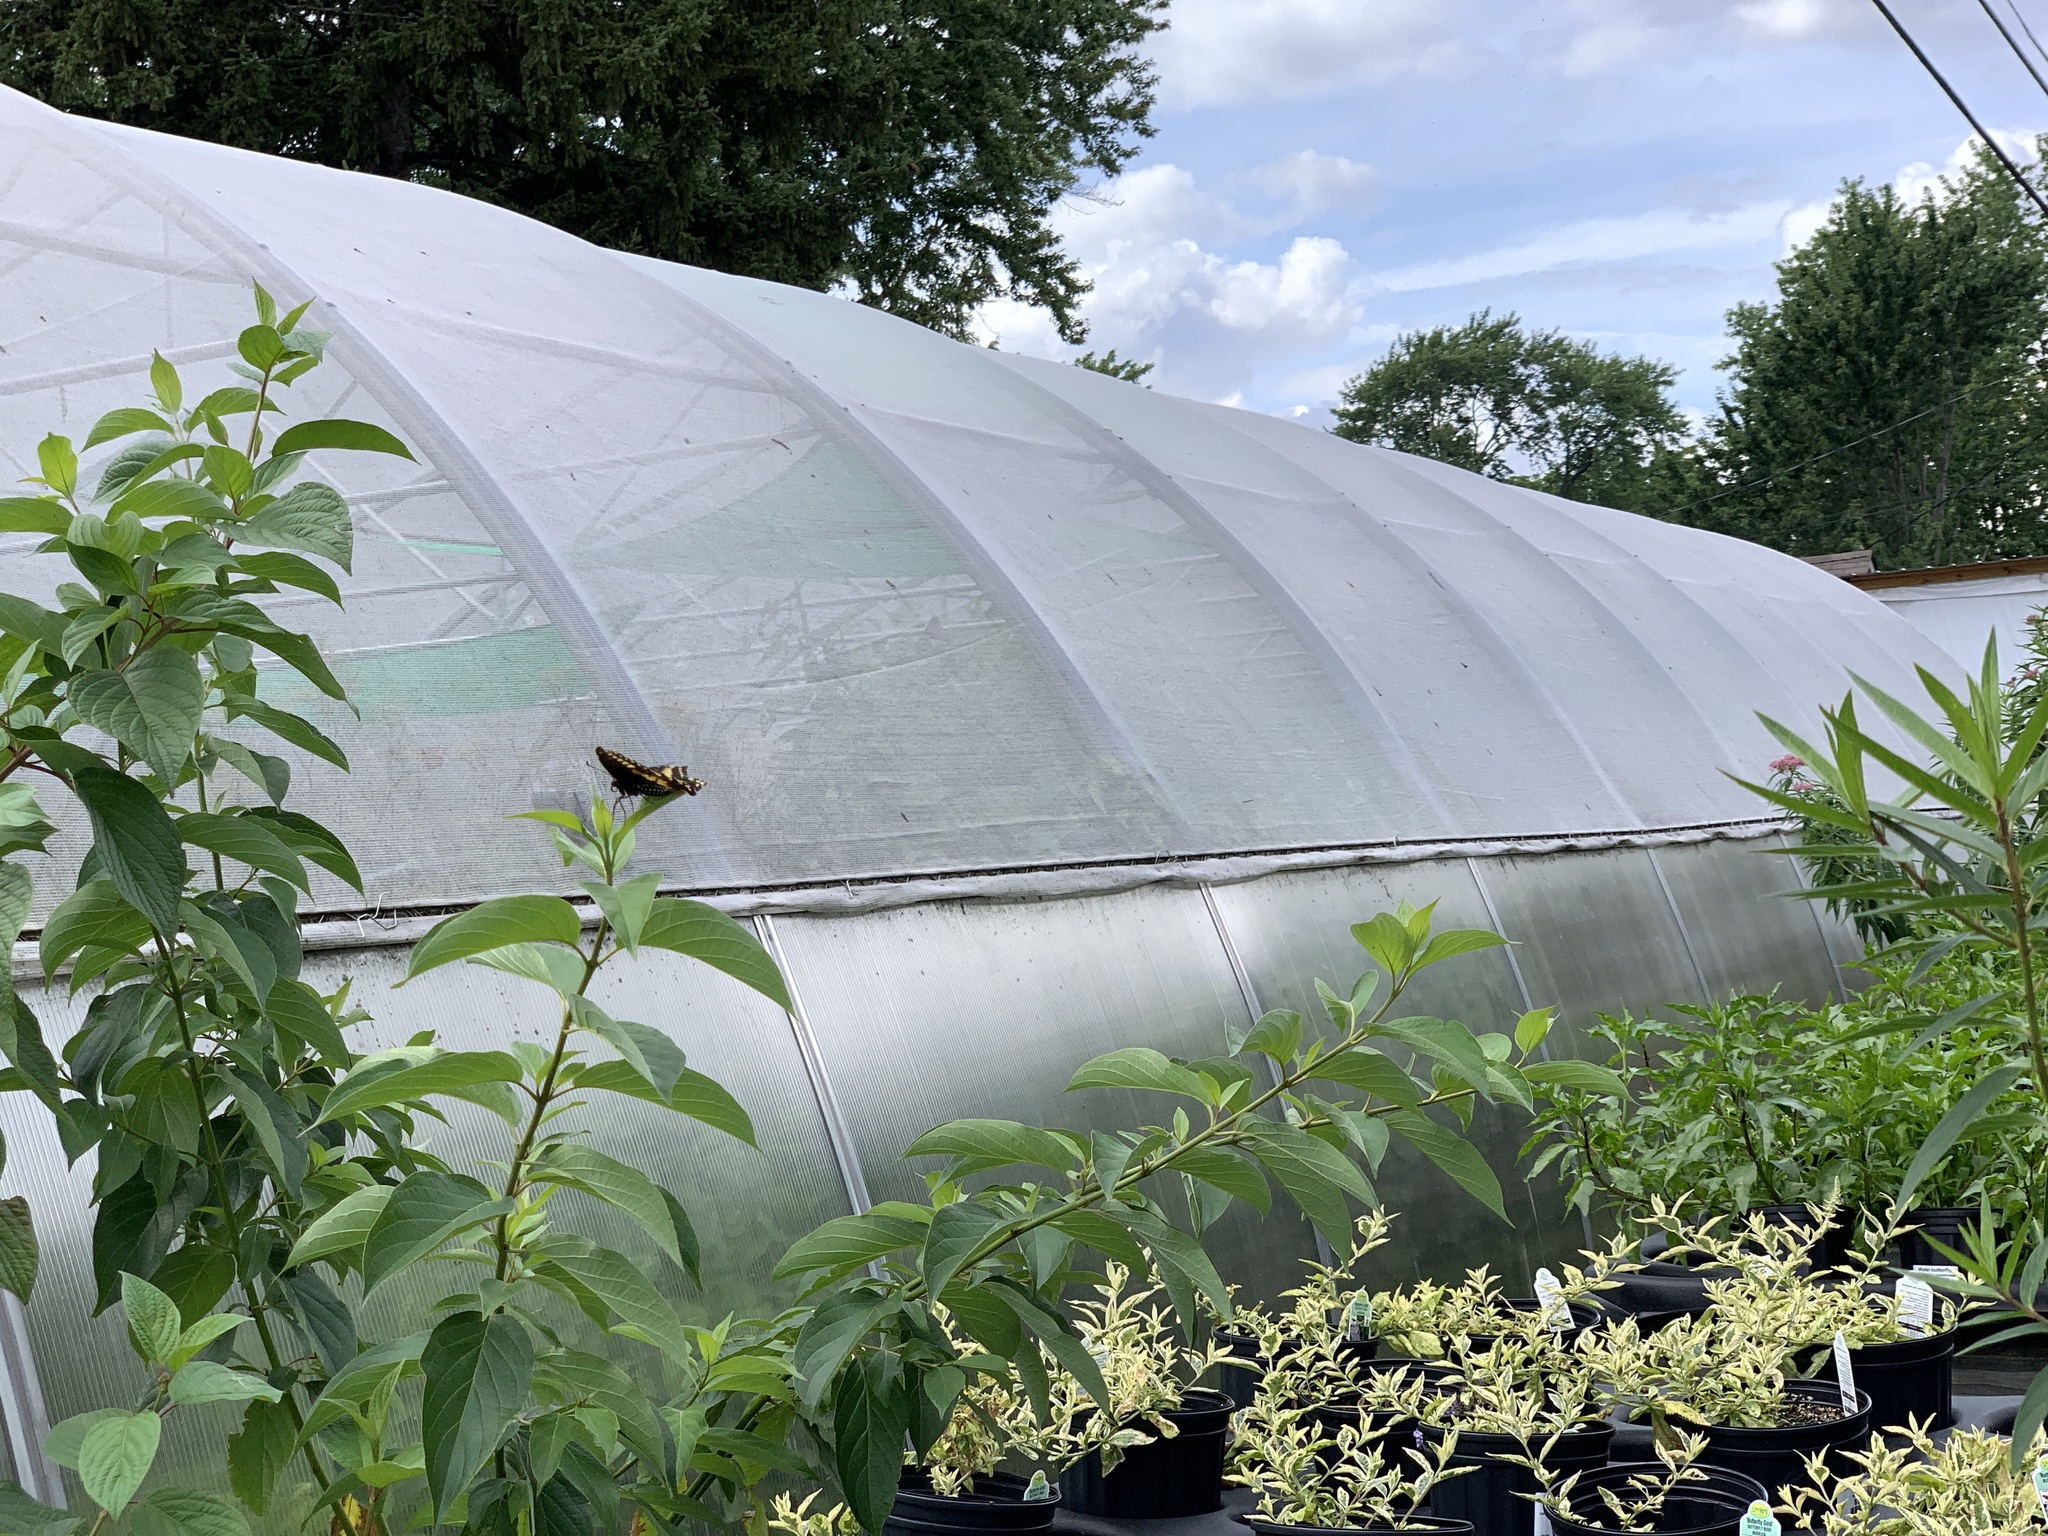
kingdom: Animalia
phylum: Arthropoda
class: Insecta
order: Lepidoptera
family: Papilionidae
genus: Papilio
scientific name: Papilio polyxenes
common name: Black swallowtail
